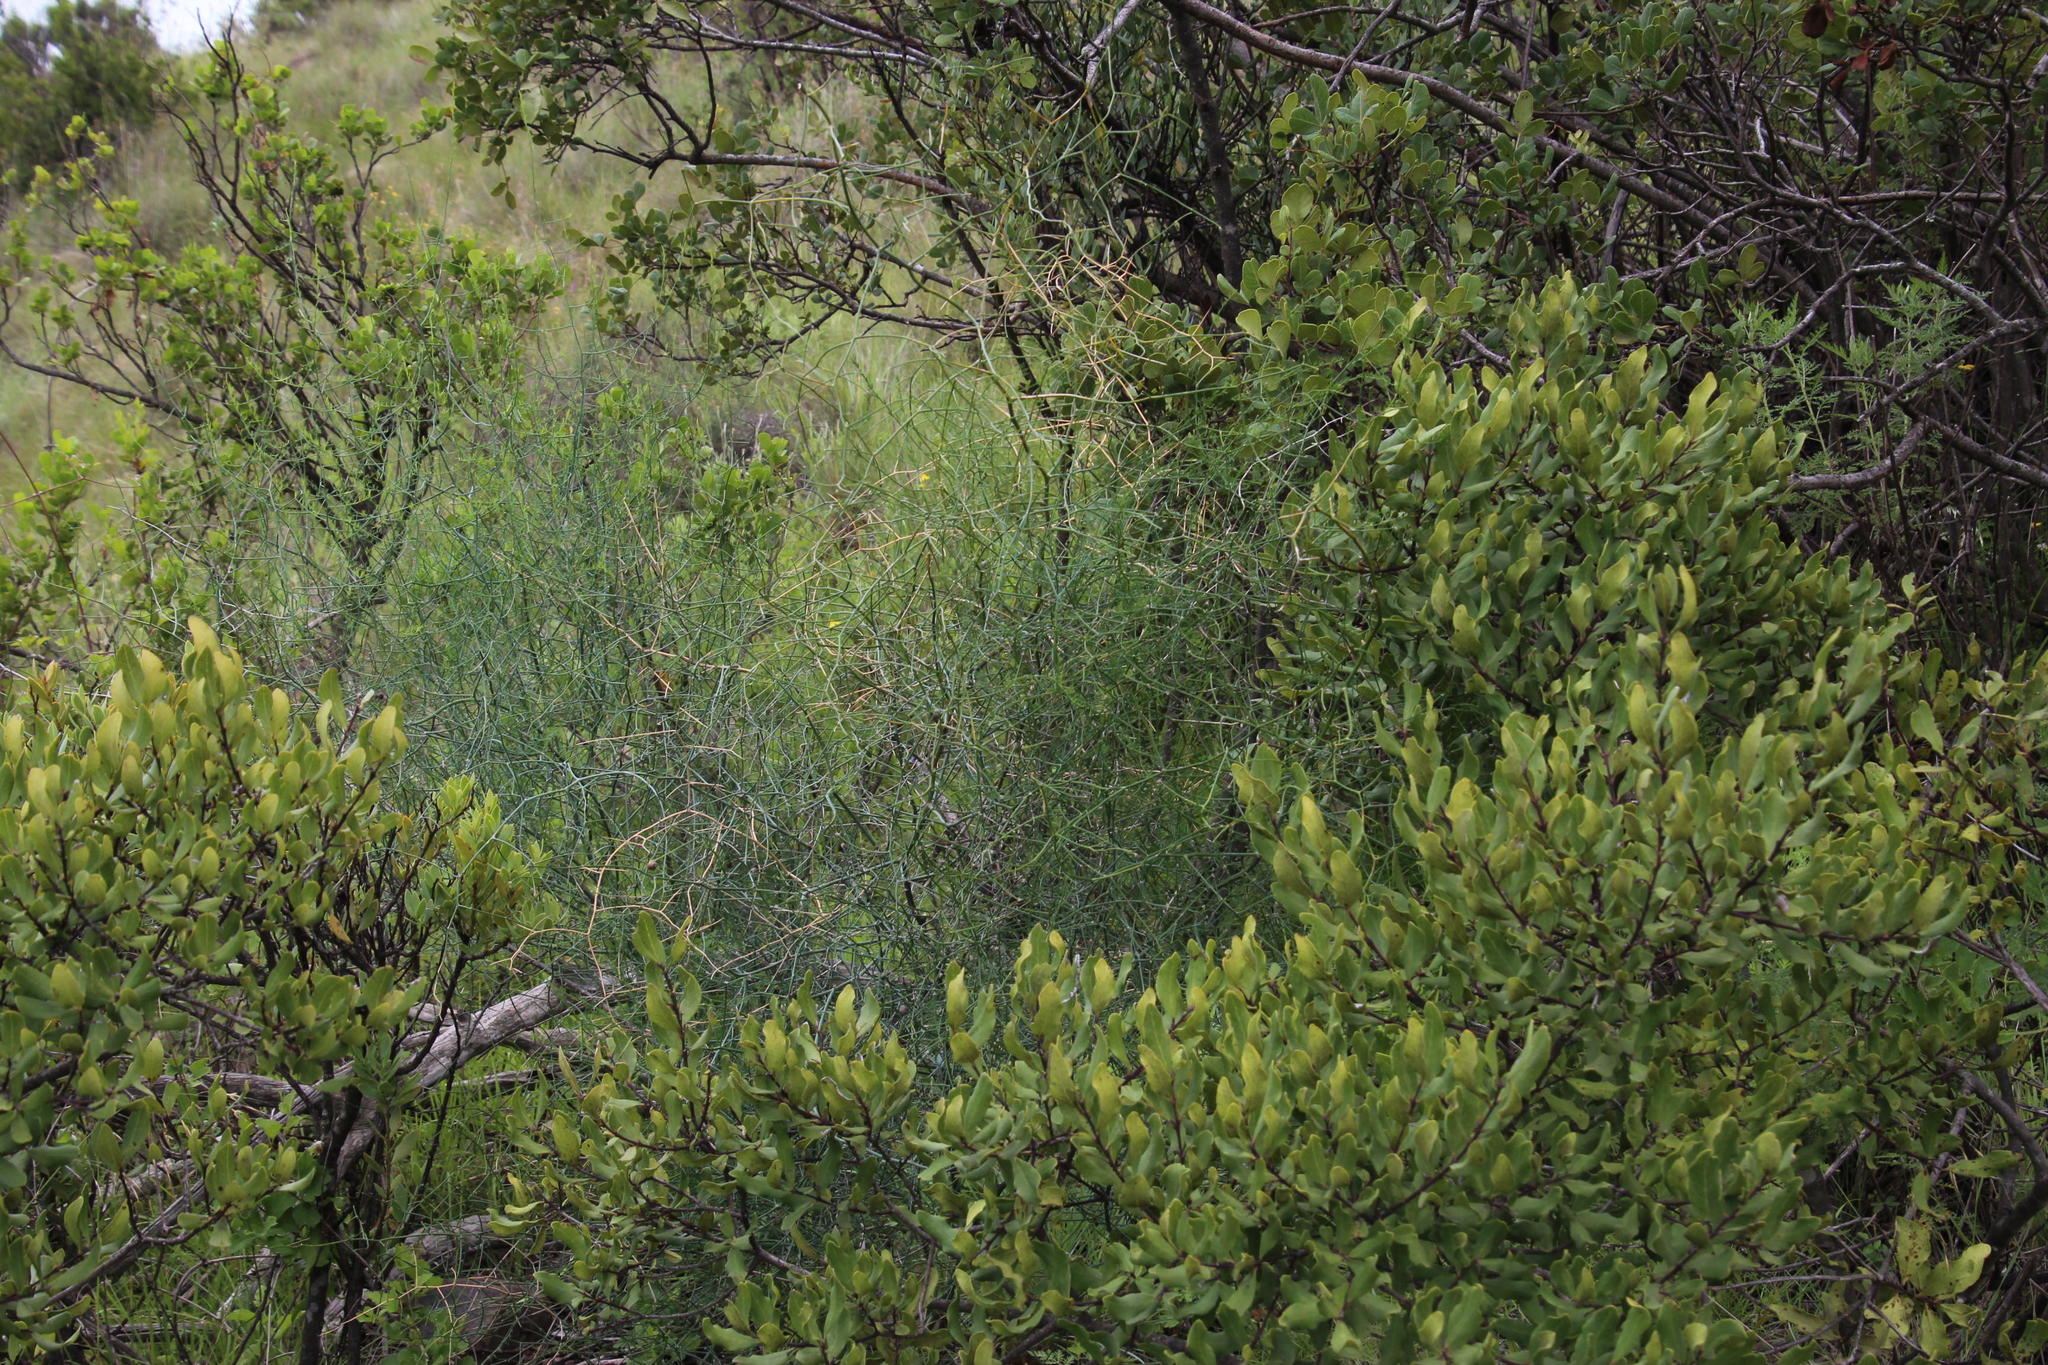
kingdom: Plantae
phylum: Tracheophyta
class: Magnoliopsida
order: Ericales
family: Ebenaceae
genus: Euclea
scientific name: Euclea crispa
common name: Blue guarri
